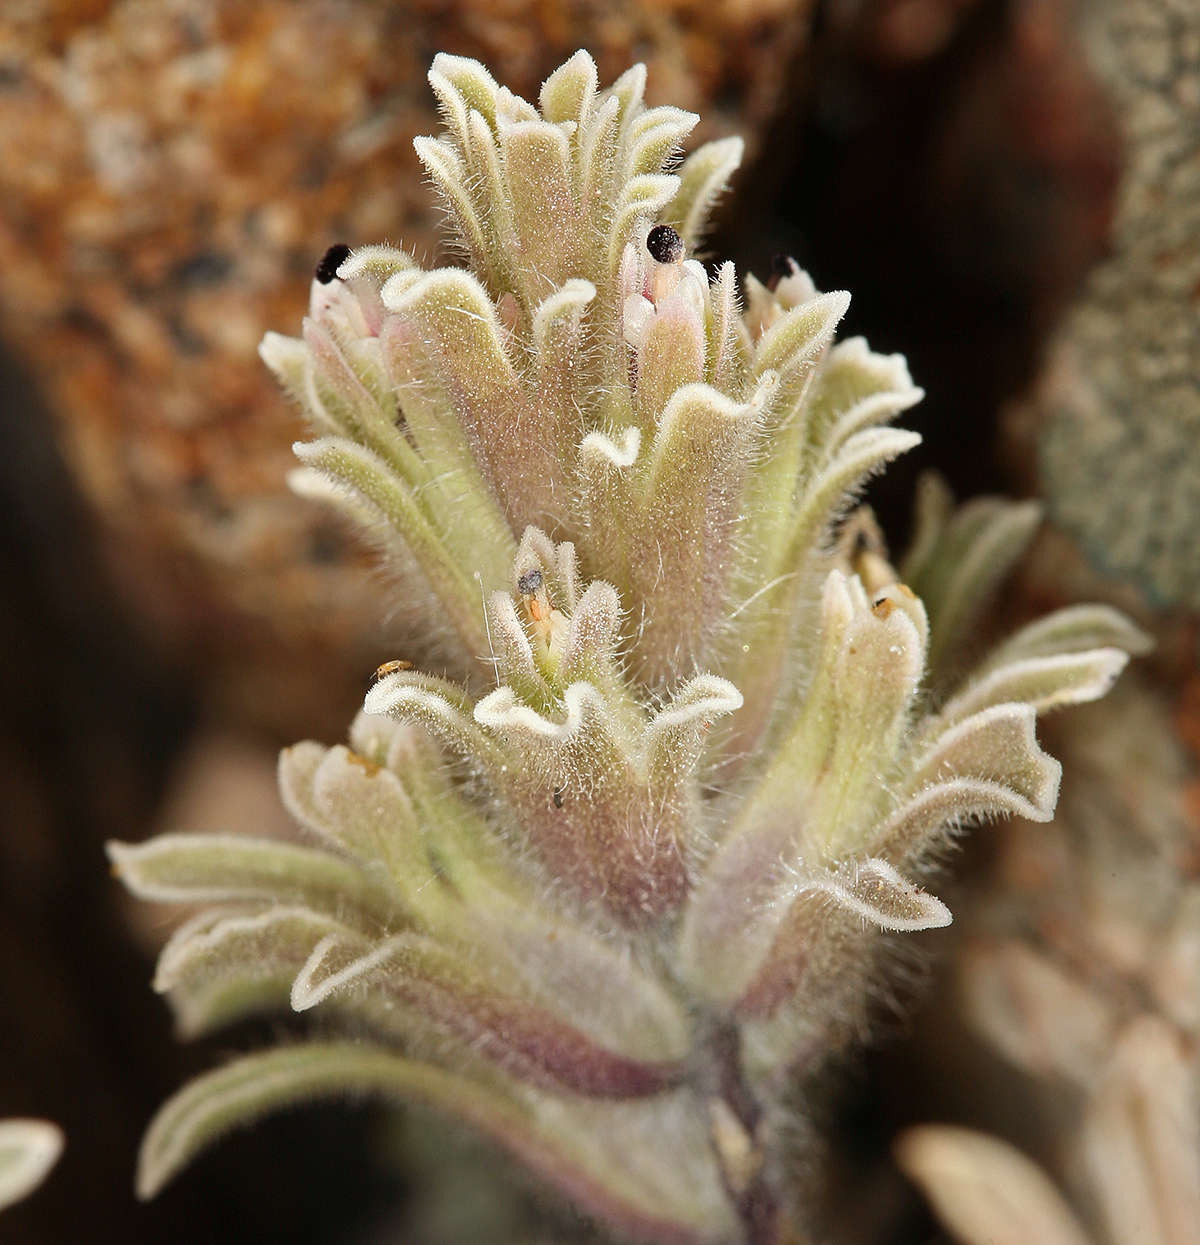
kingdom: Plantae
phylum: Tracheophyta
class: Magnoliopsida
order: Lamiales
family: Orobanchaceae
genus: Castilleja
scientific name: Castilleja nana
